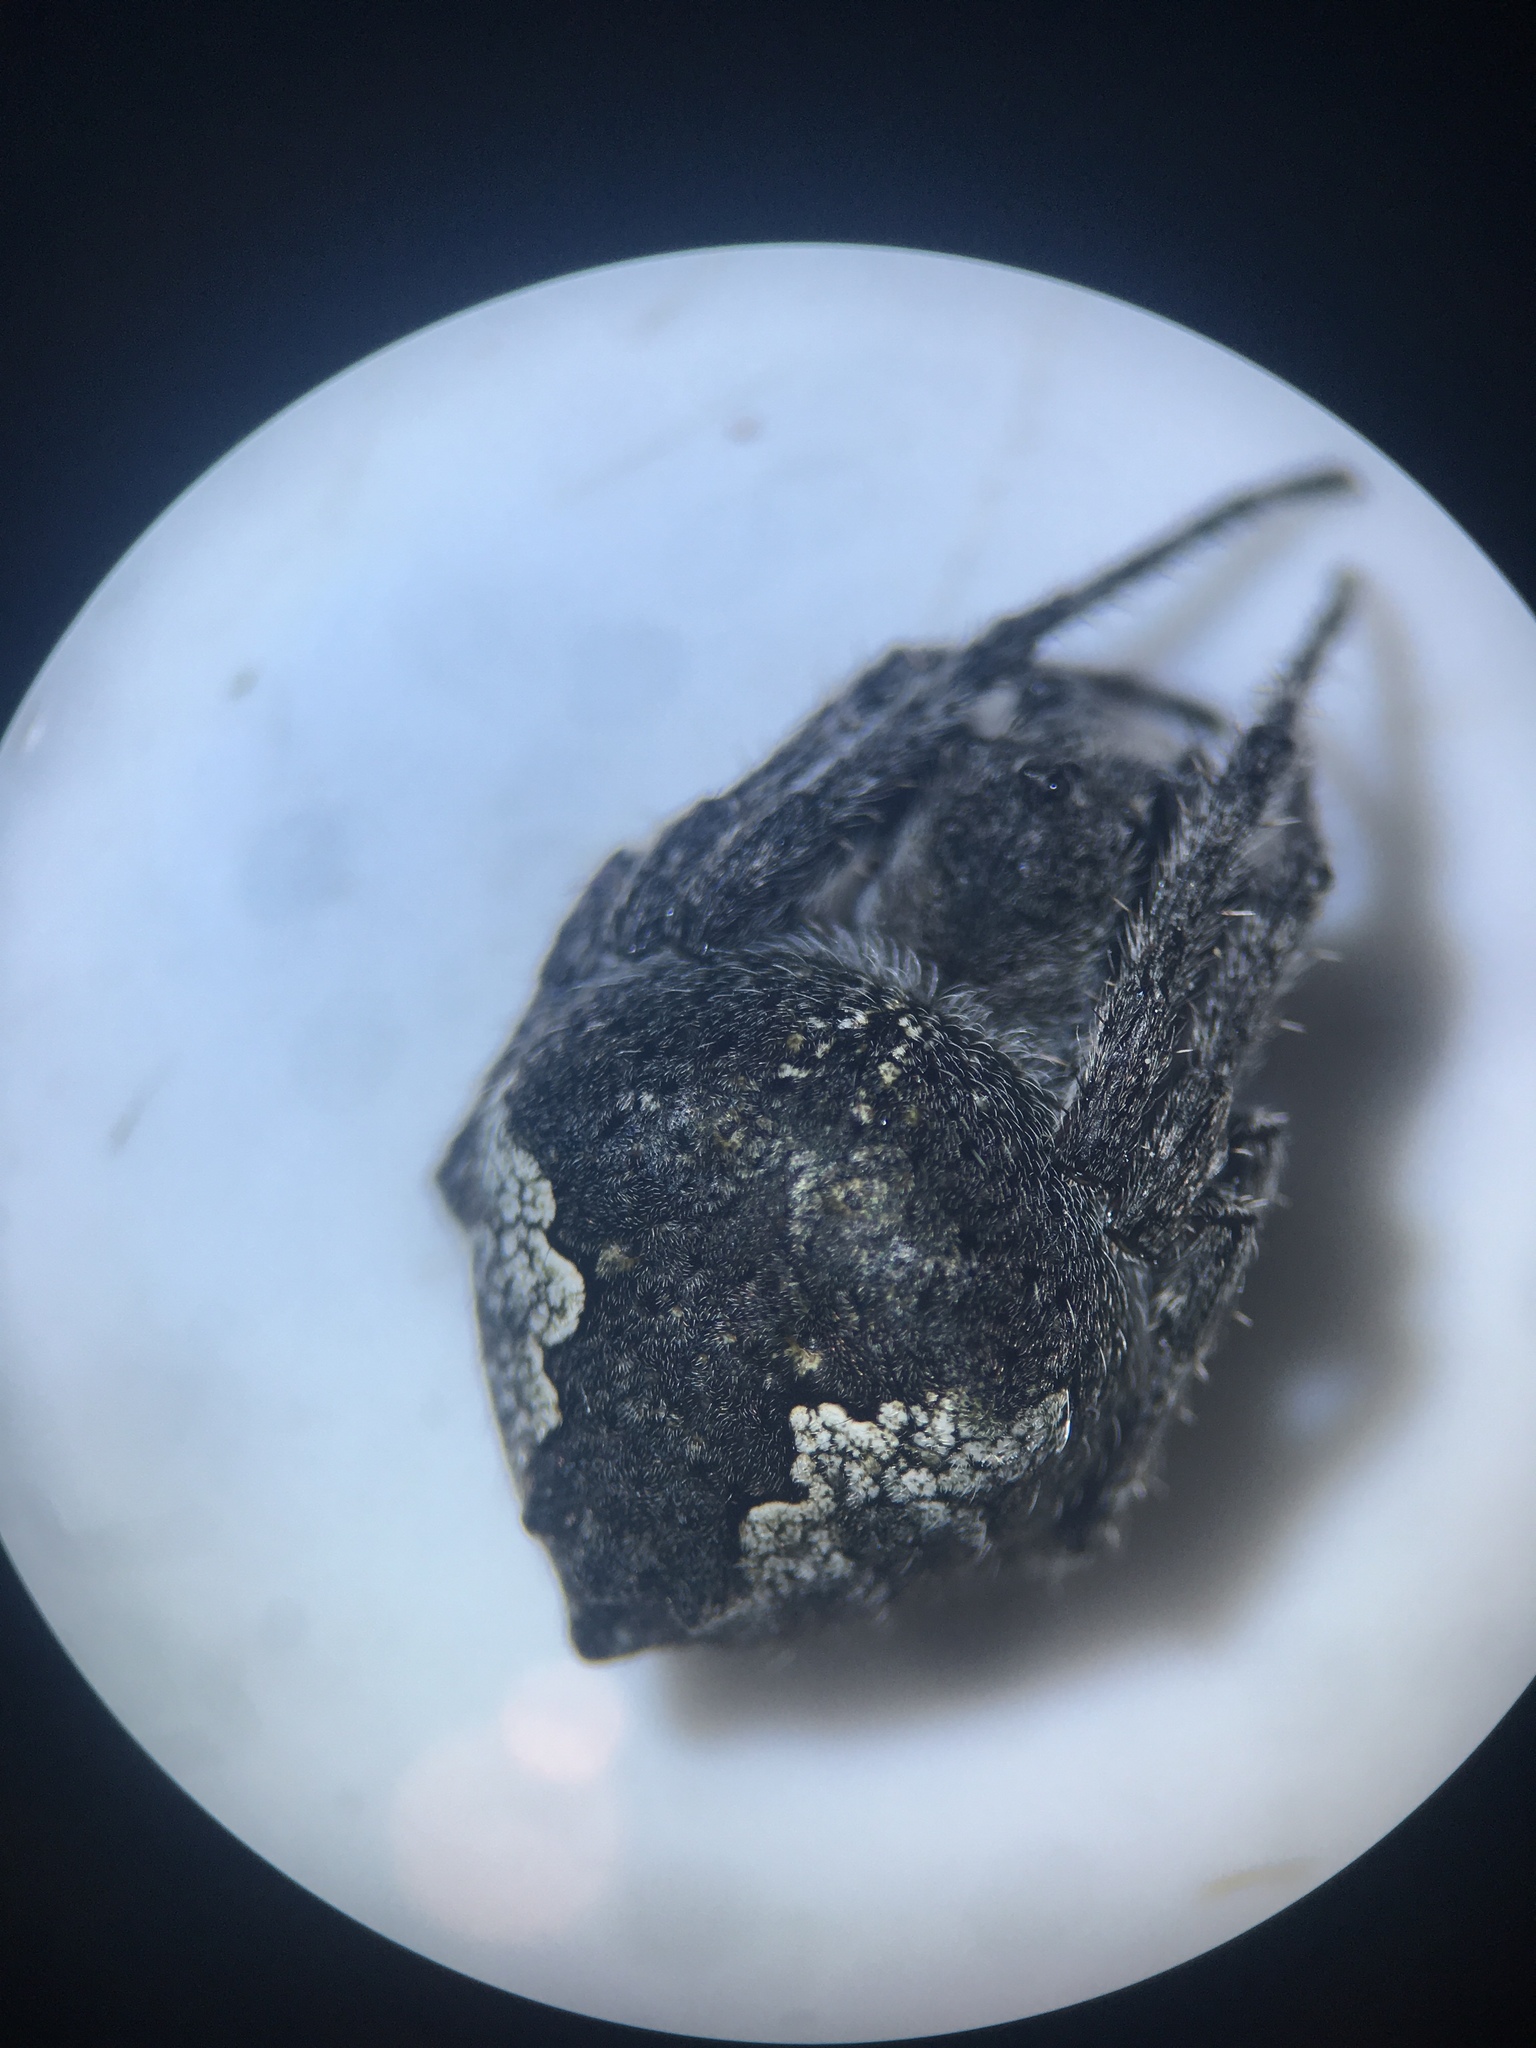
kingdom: Animalia
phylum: Arthropoda
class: Arachnida
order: Araneae
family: Araneidae
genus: Eriophora
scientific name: Eriophora pustulosa
